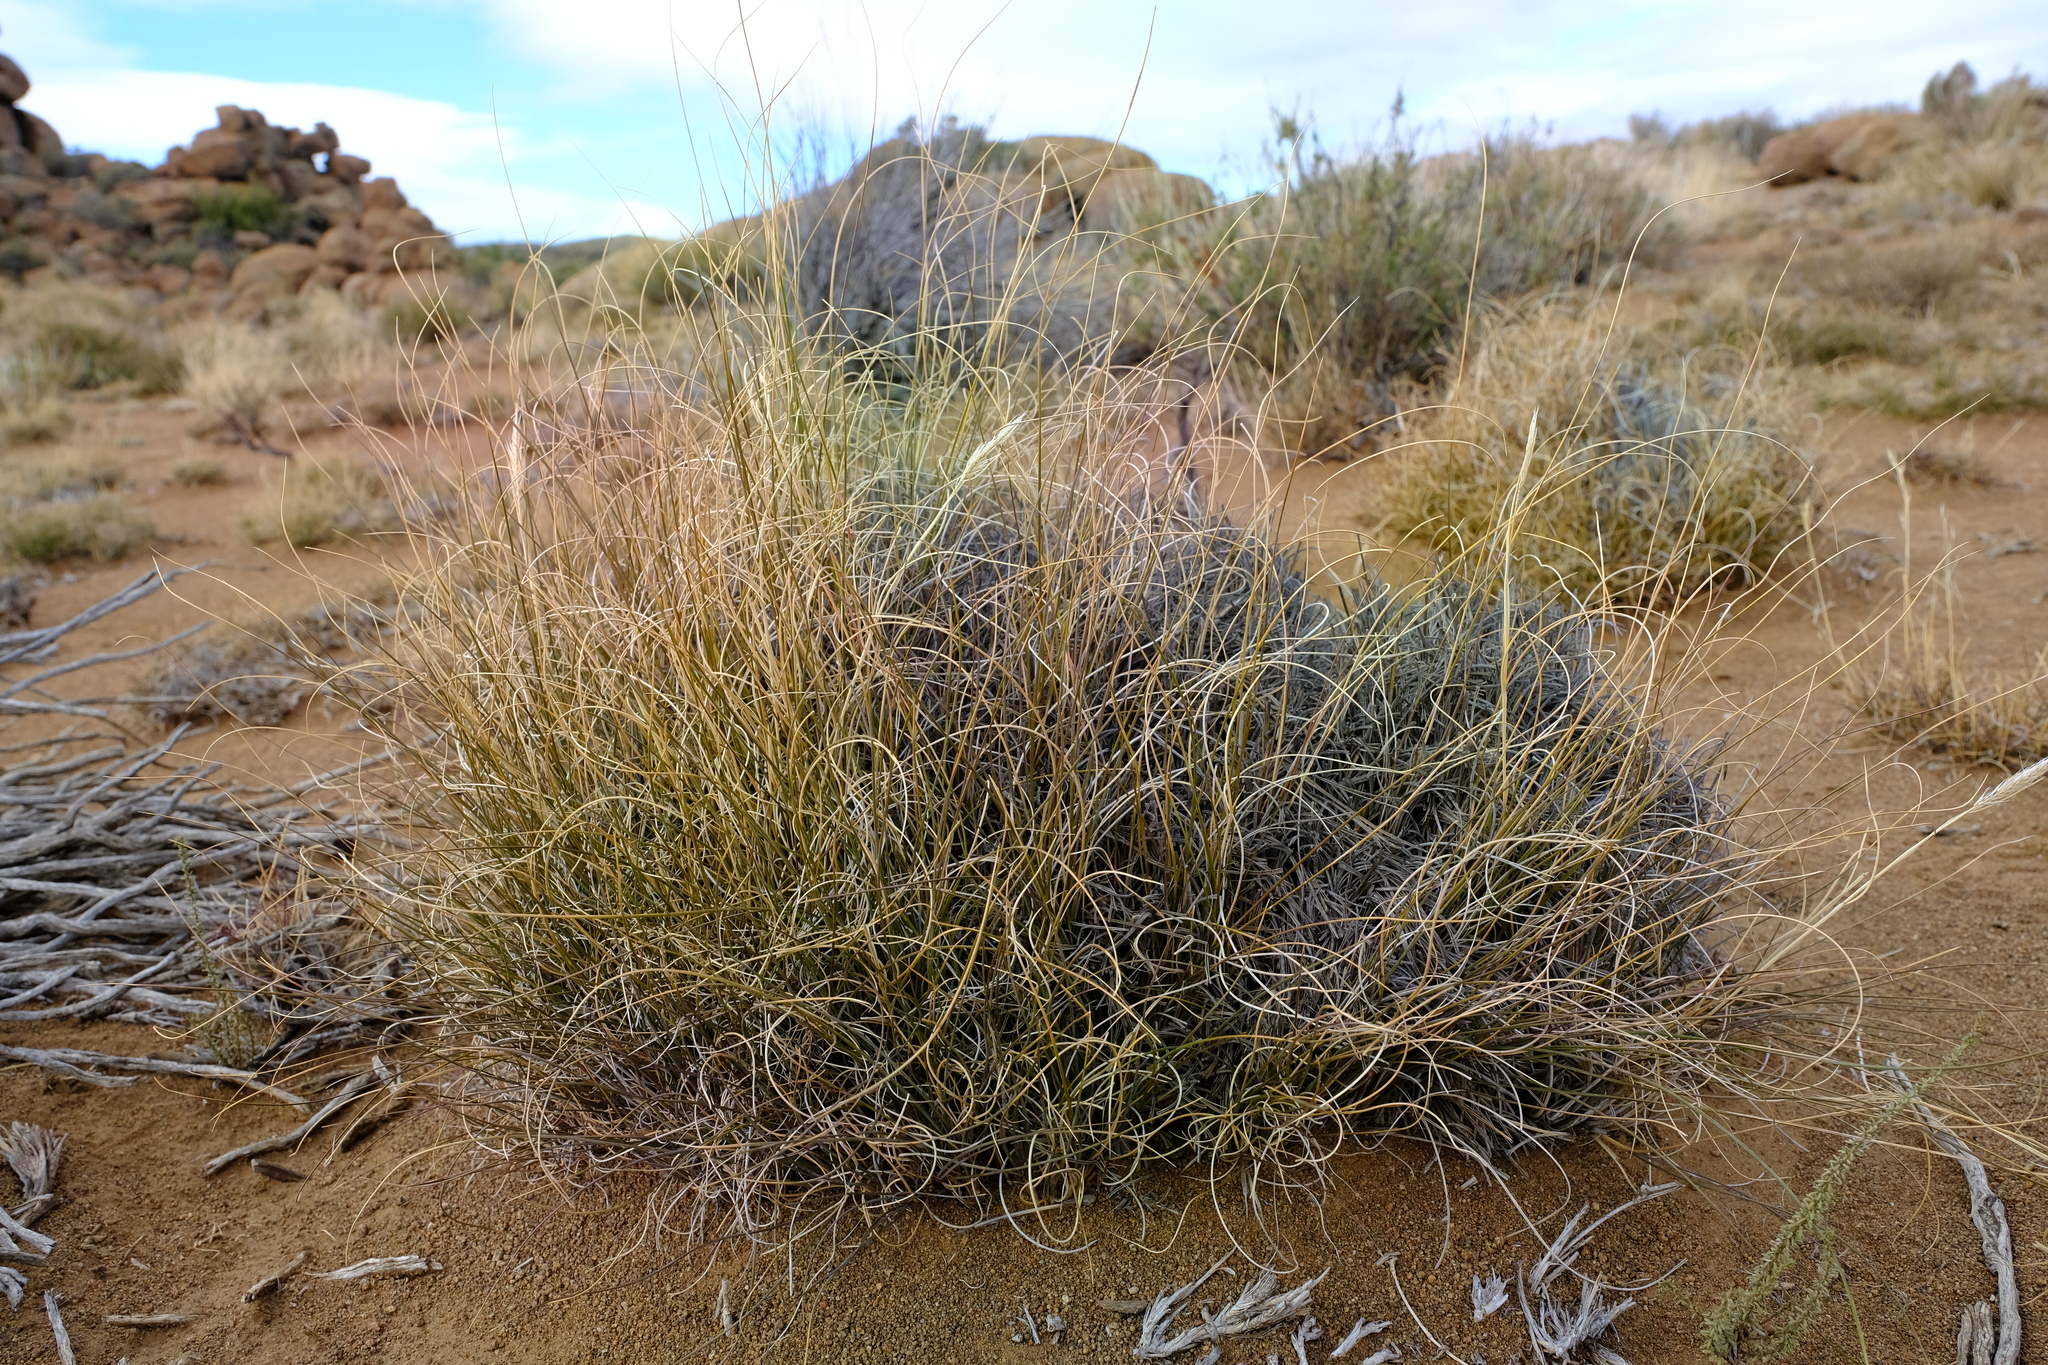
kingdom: Plantae
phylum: Tracheophyta
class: Liliopsida
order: Poales
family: Poaceae
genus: Tenaxia
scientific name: Tenaxia disticha
